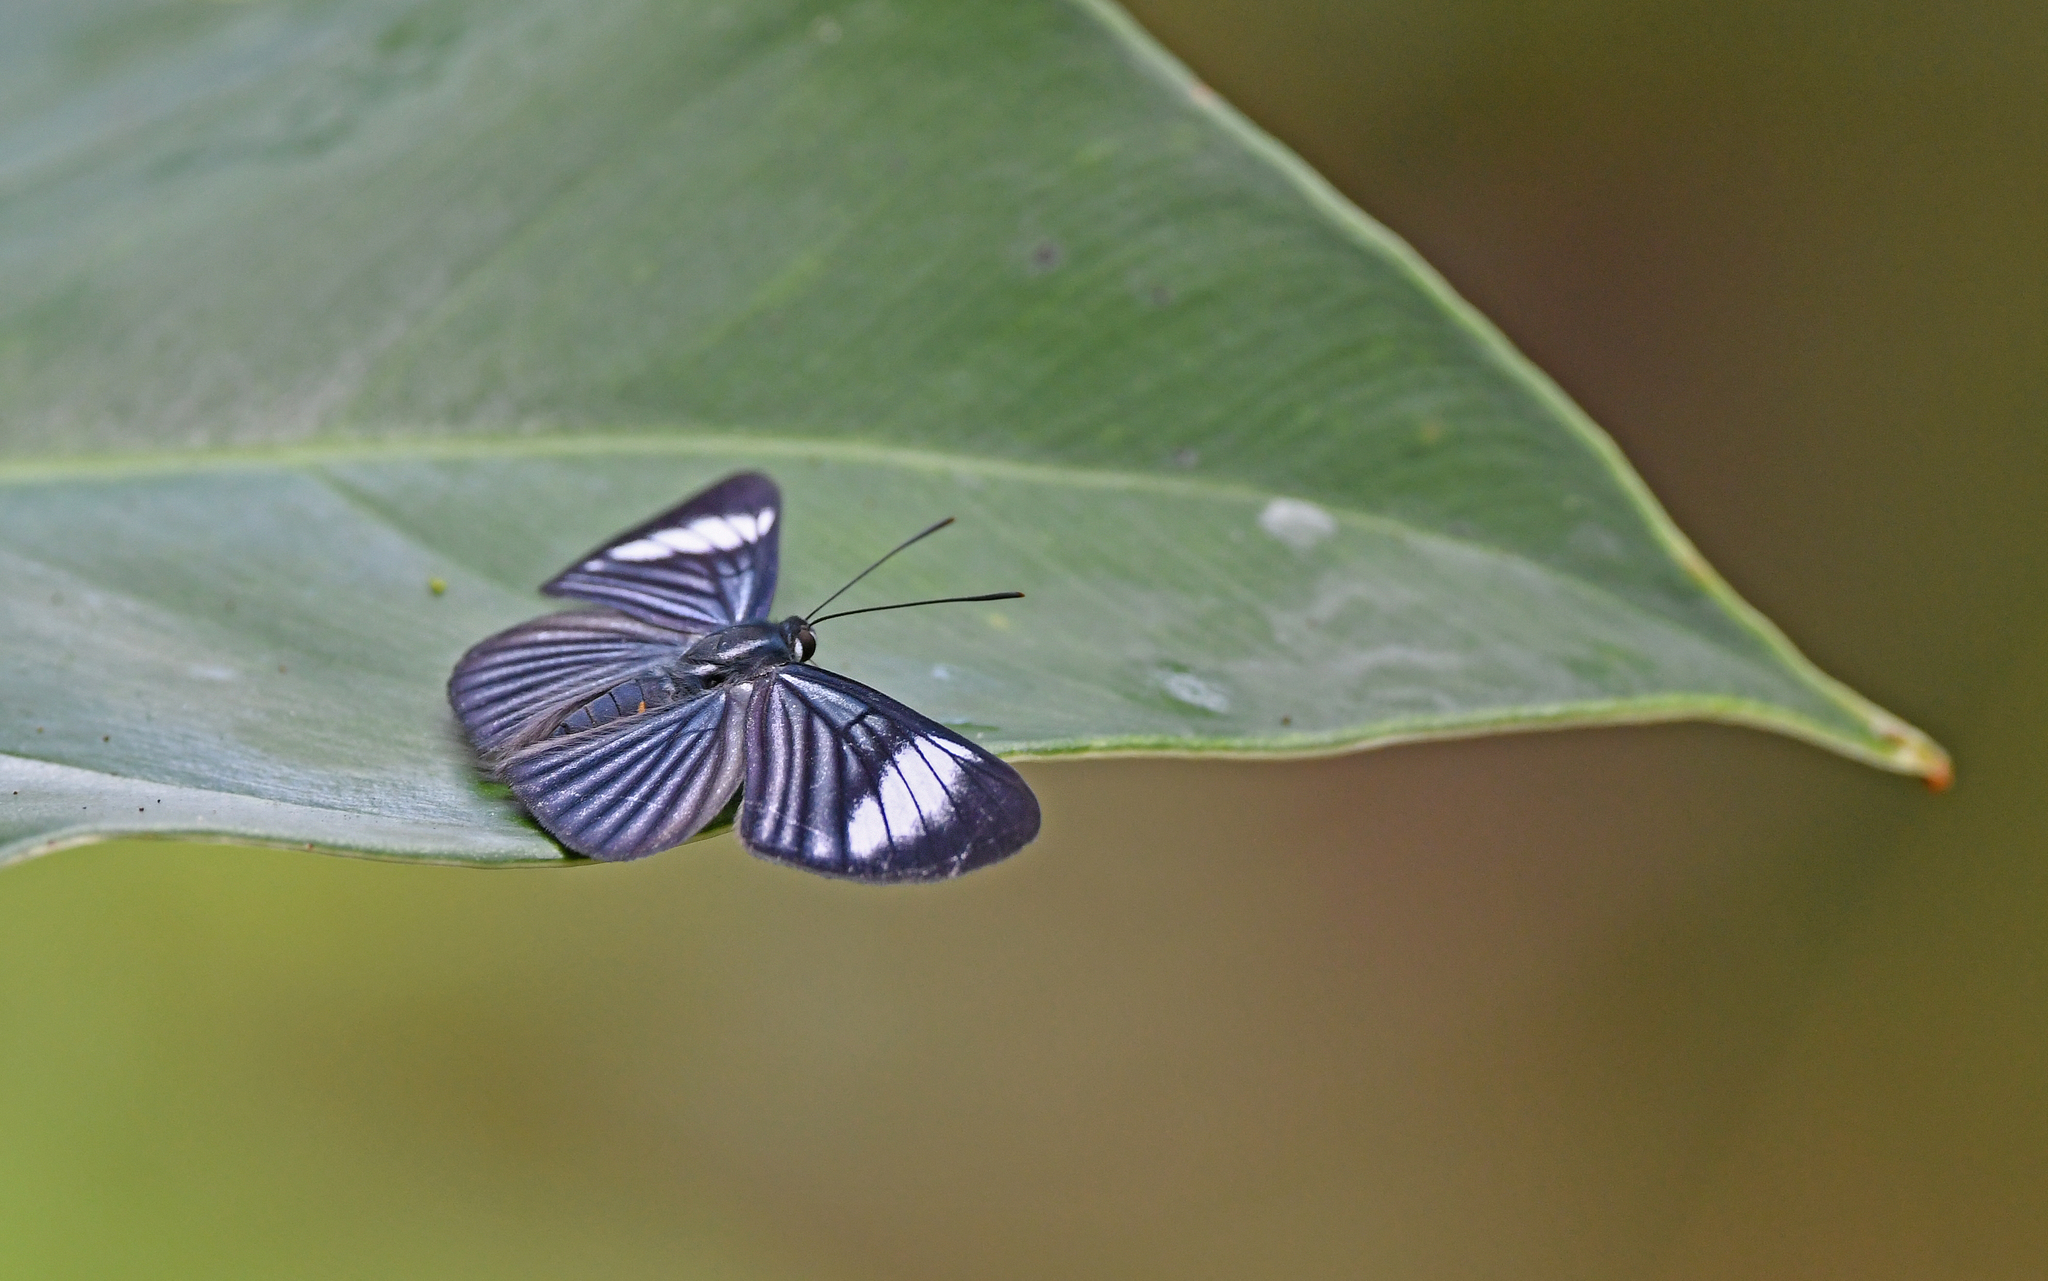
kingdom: Animalia
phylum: Arthropoda
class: Insecta
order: Lepidoptera
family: Riodinidae
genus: Brachyglenis
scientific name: Brachyglenis esthema
